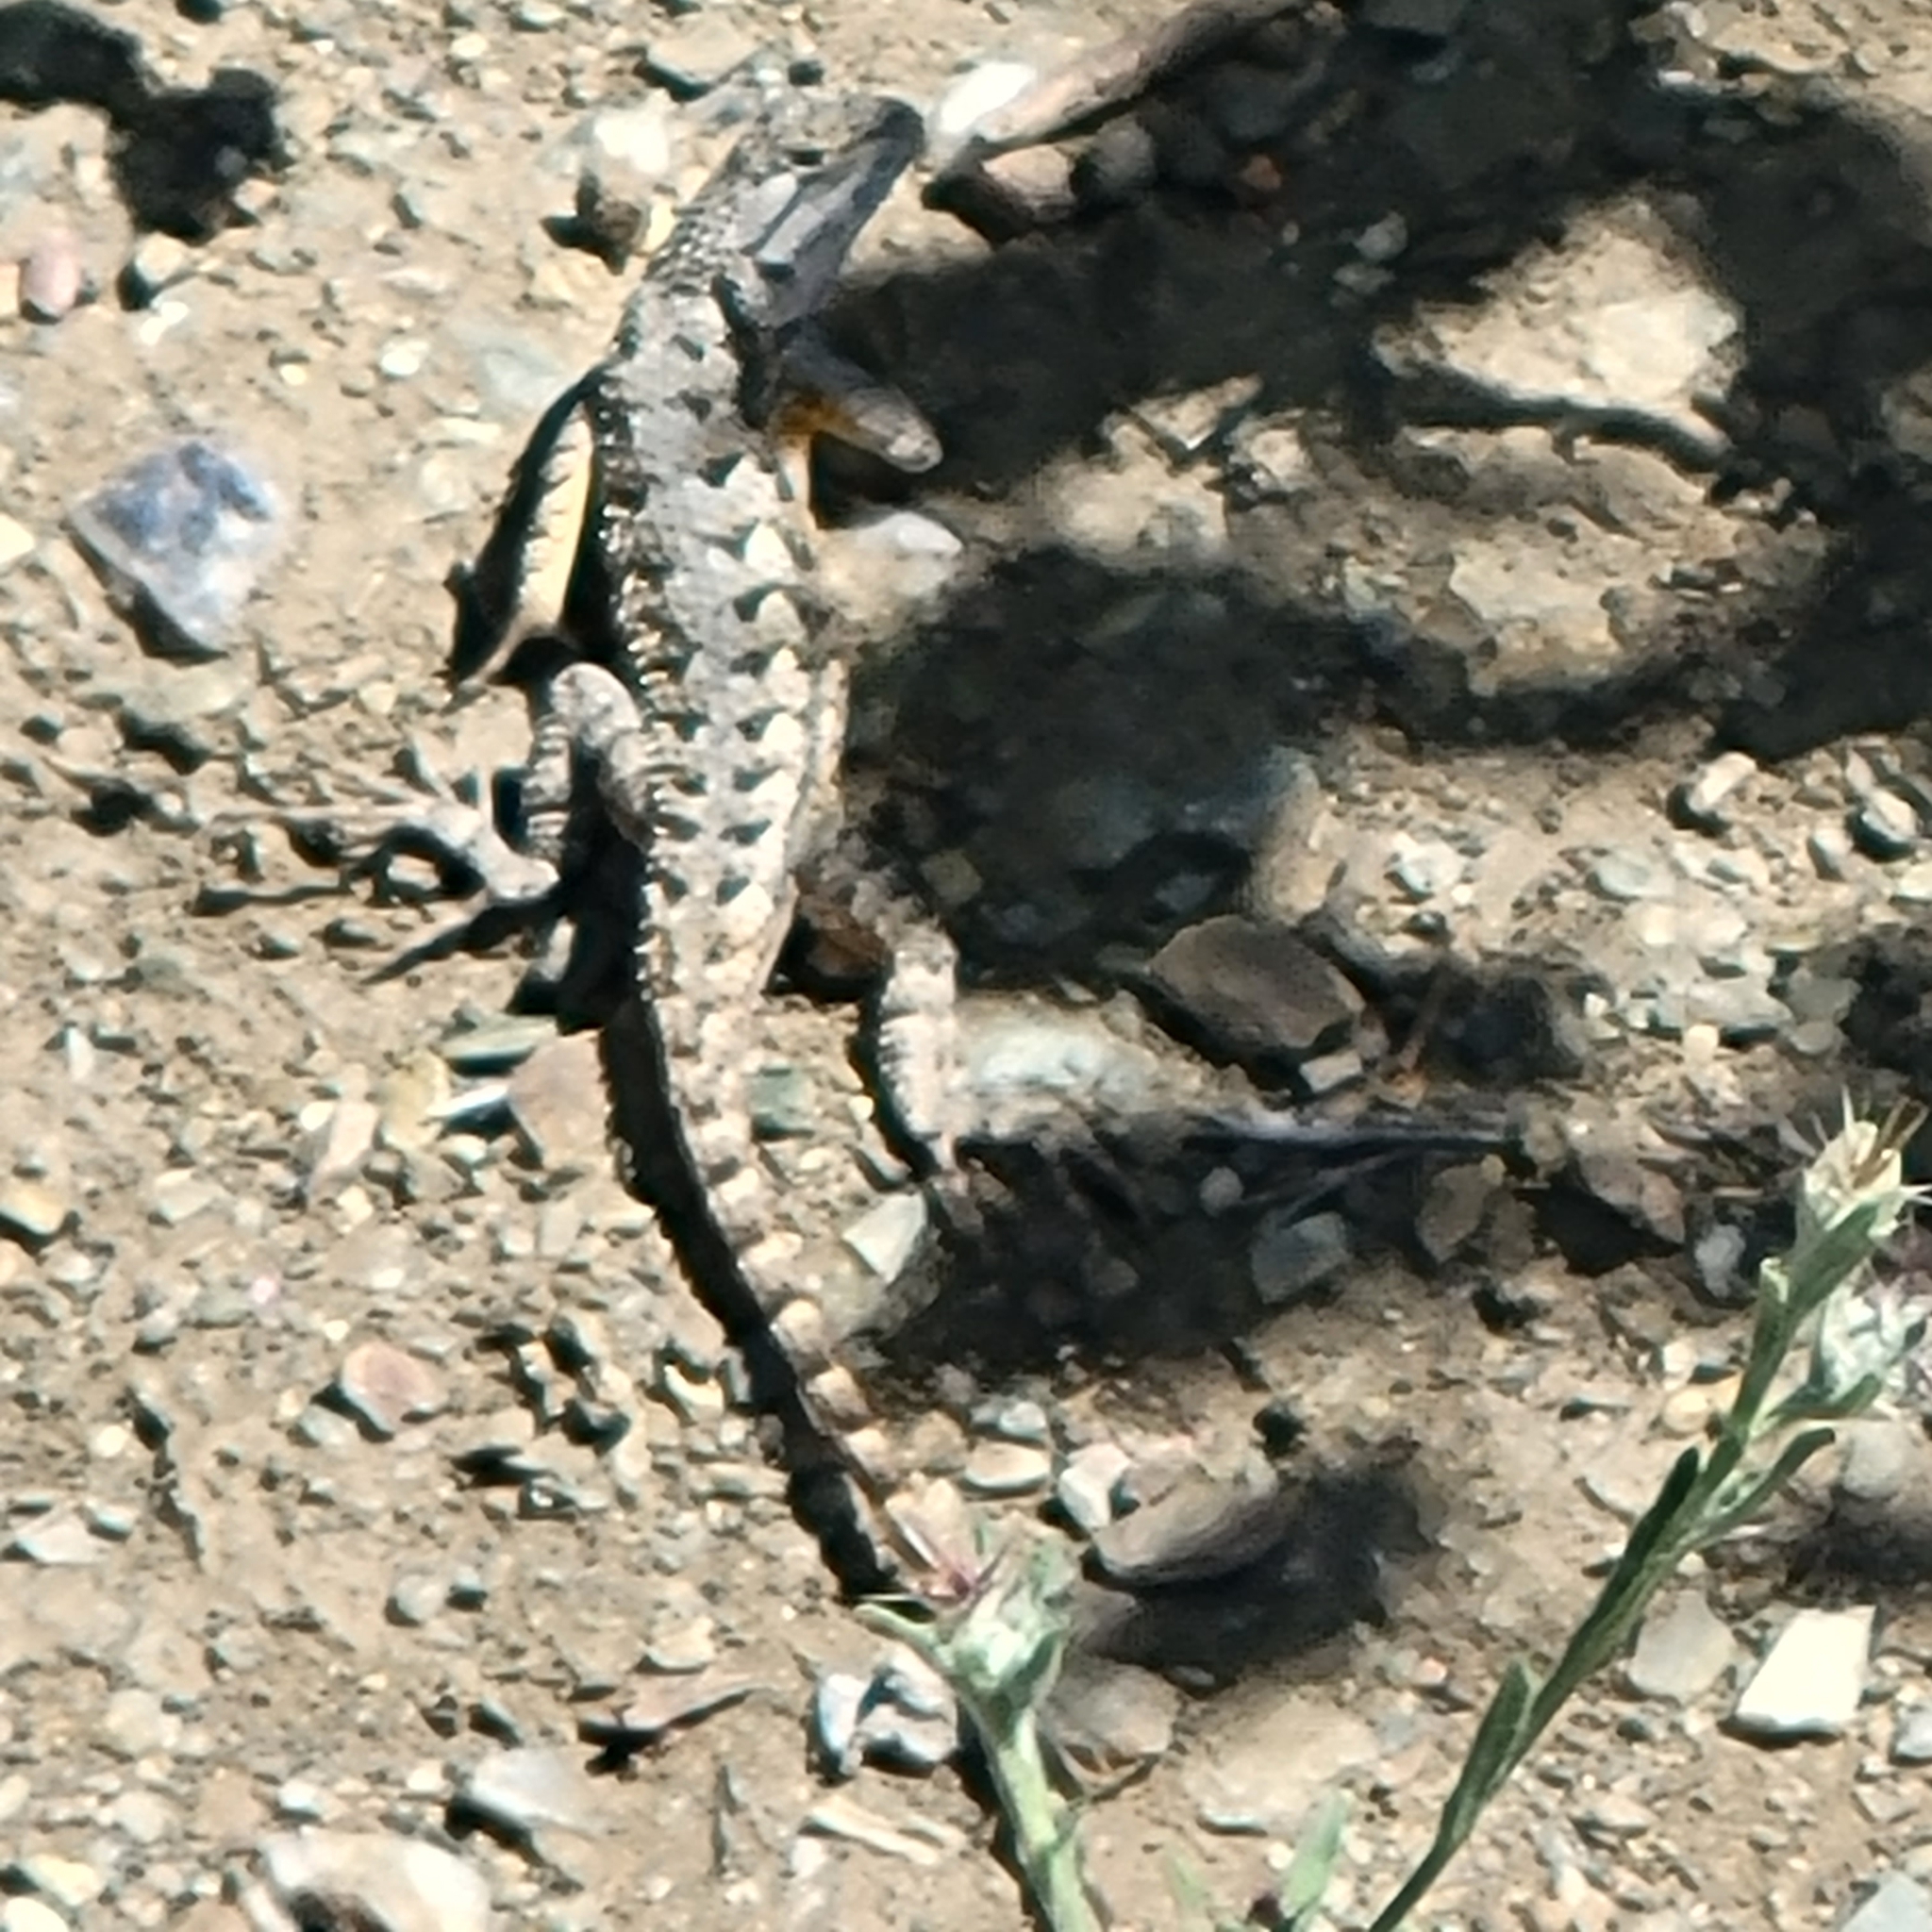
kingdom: Animalia
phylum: Chordata
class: Squamata
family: Phrynosomatidae
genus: Sceloporus
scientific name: Sceloporus occidentalis
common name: Western fence lizard
